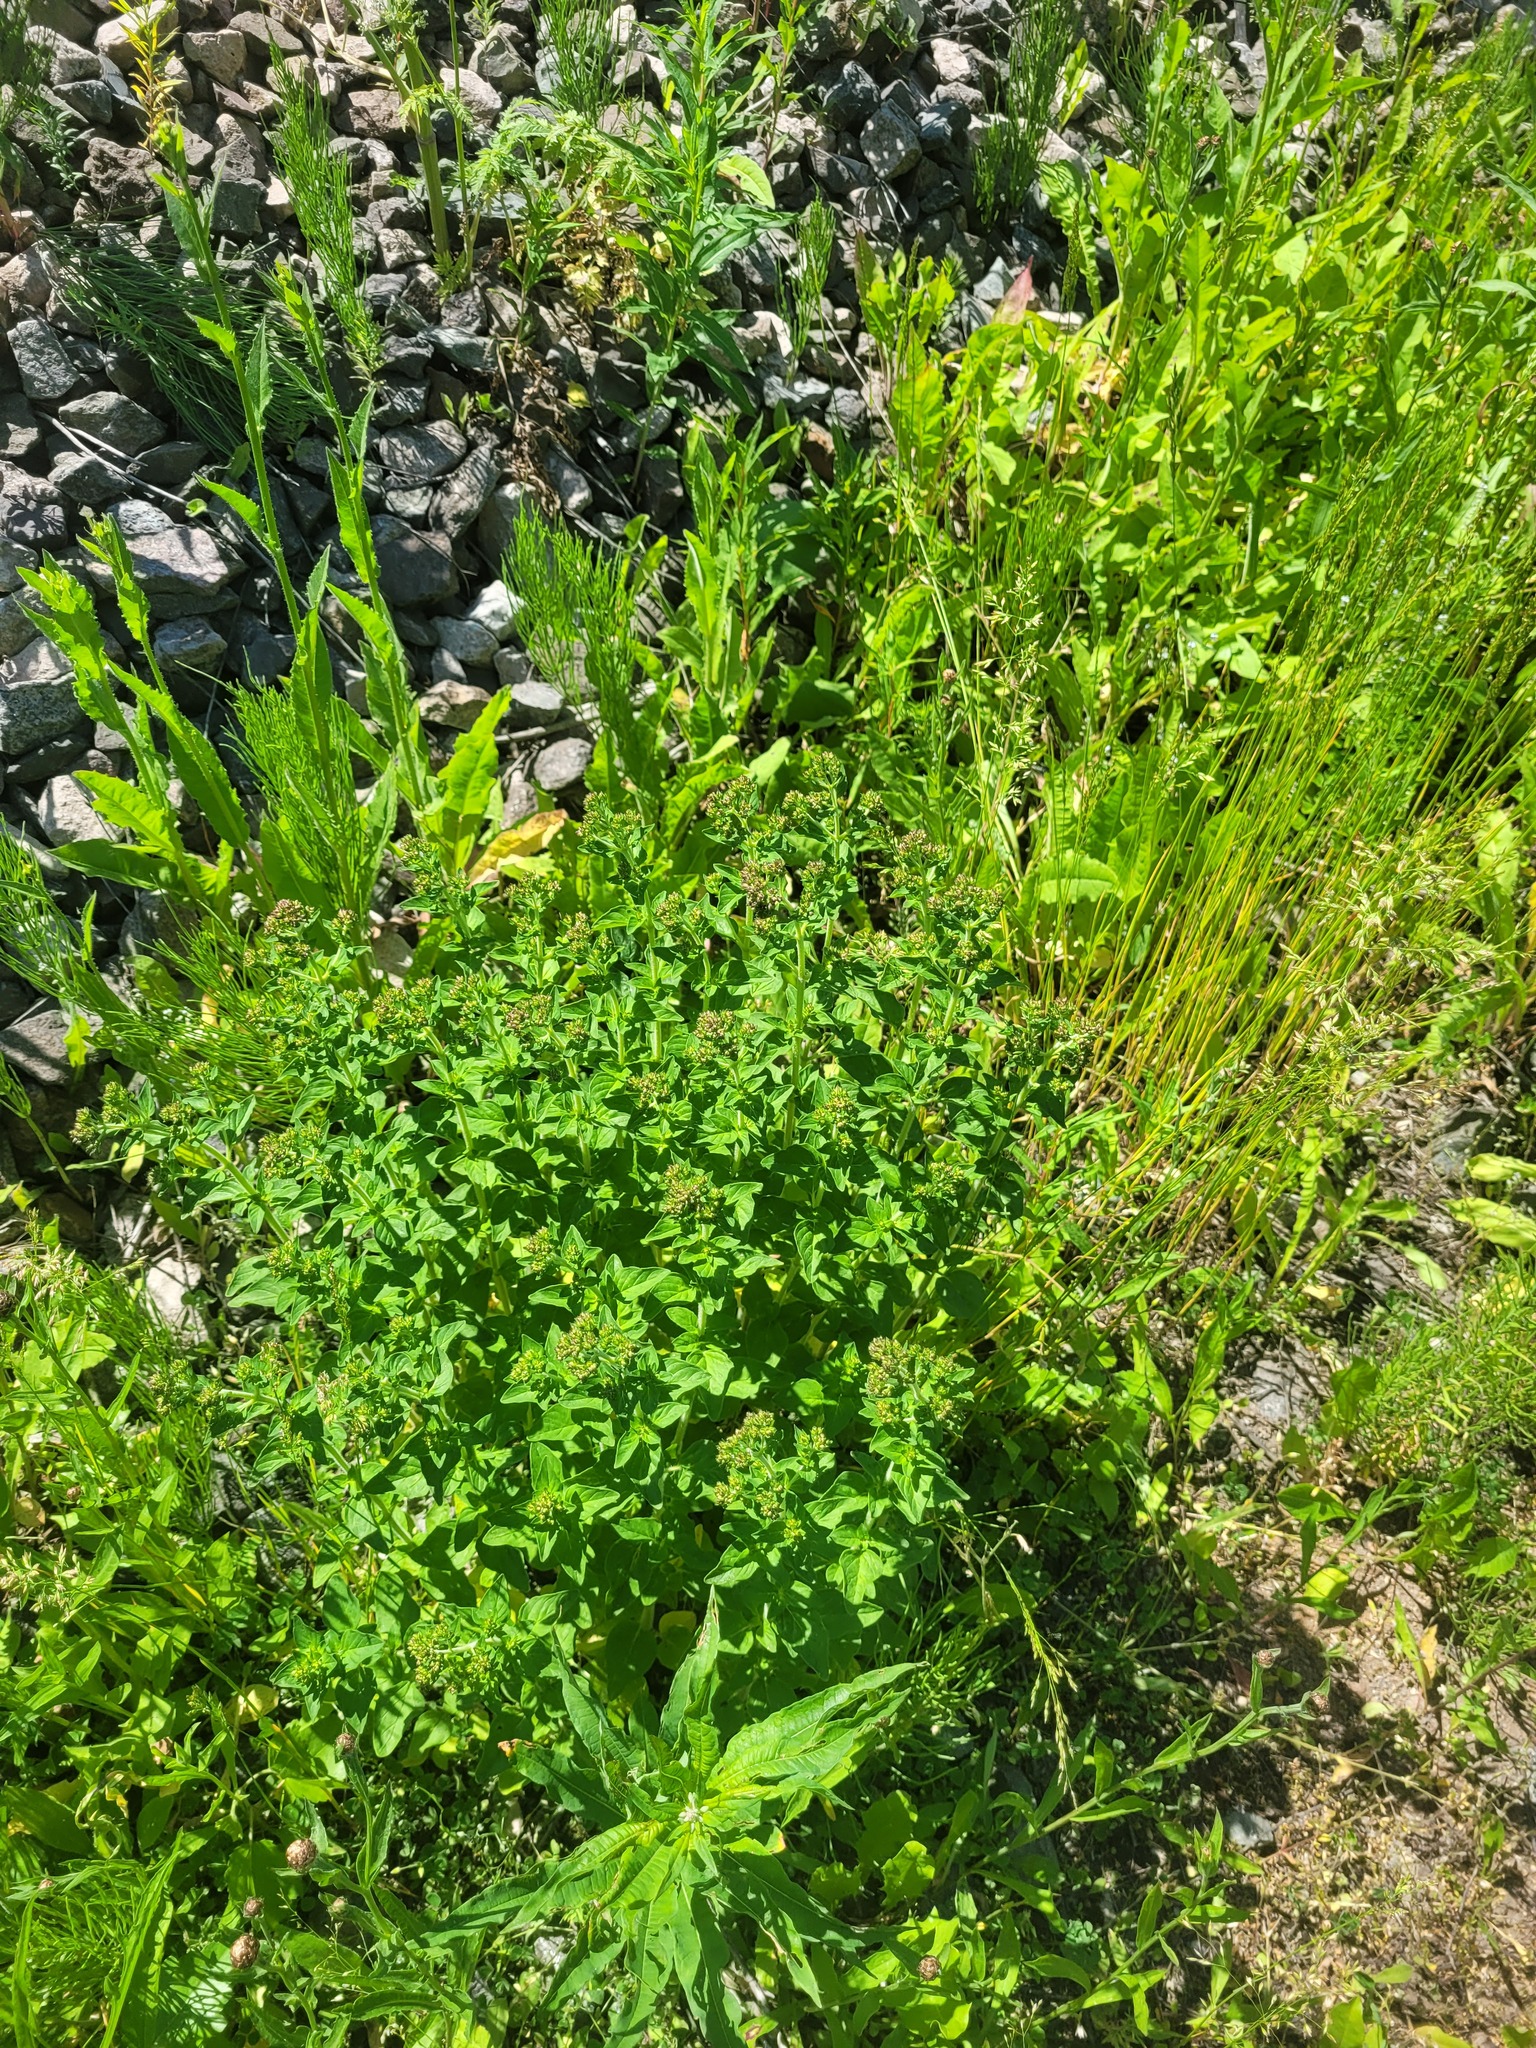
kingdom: Plantae
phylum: Tracheophyta
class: Magnoliopsida
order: Lamiales
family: Lamiaceae
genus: Origanum
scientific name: Origanum vulgare
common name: Wild marjoram
